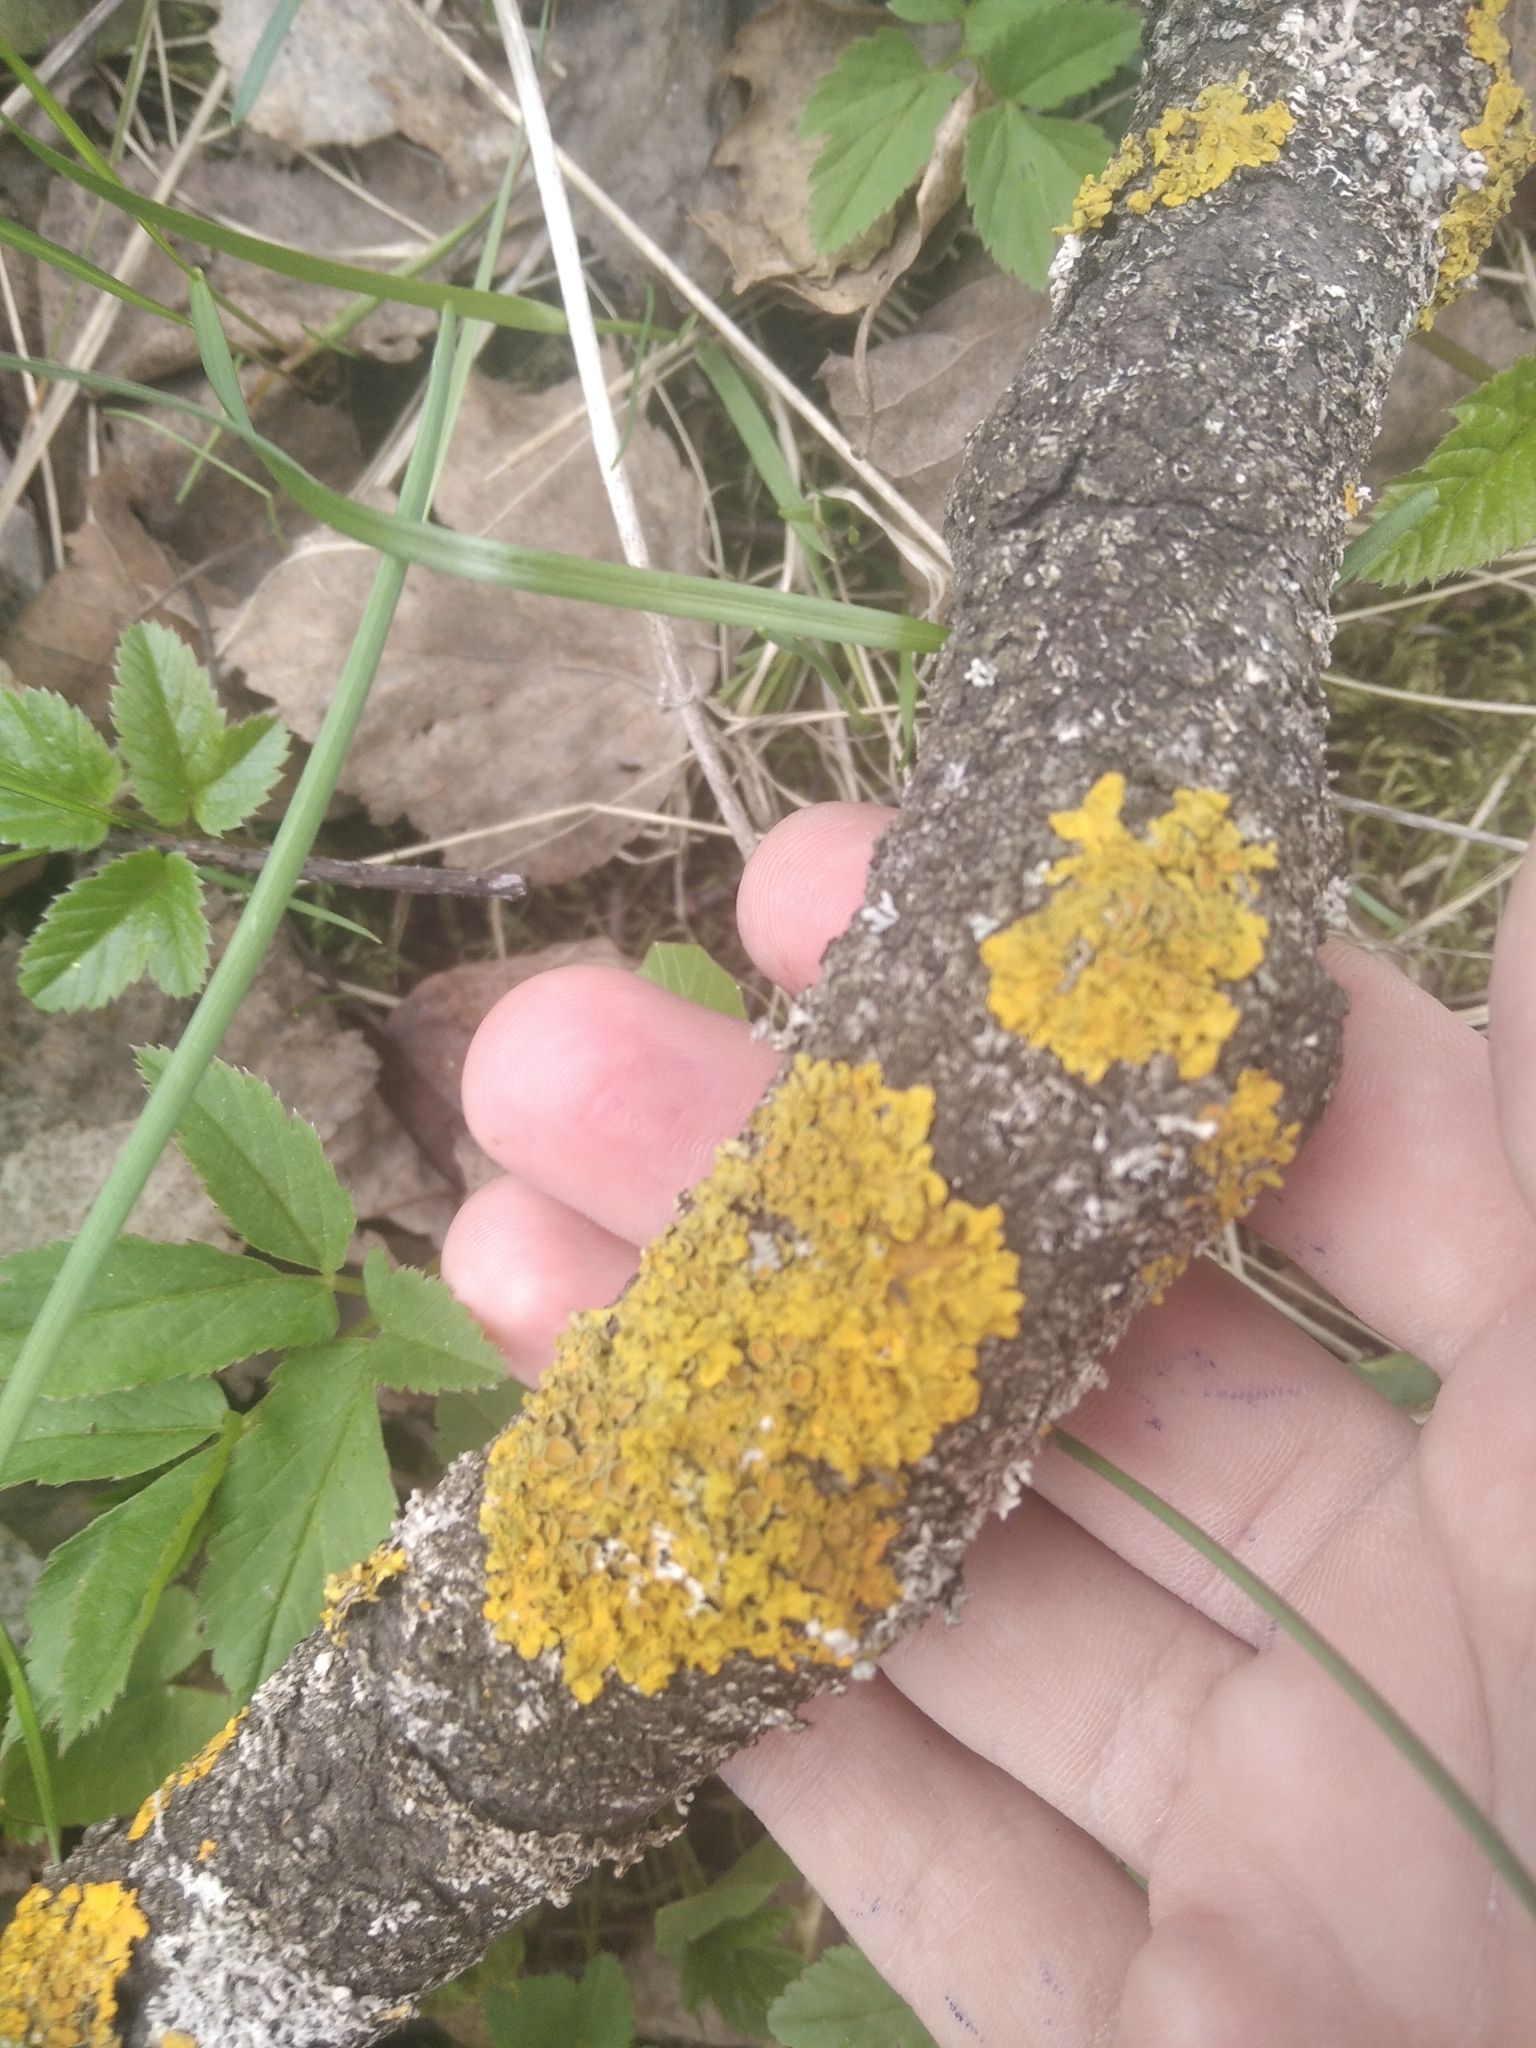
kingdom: Fungi
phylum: Ascomycota
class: Lecanoromycetes
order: Teloschistales
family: Teloschistaceae
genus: Xanthoria
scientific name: Xanthoria parietina
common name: Common orange lichen
